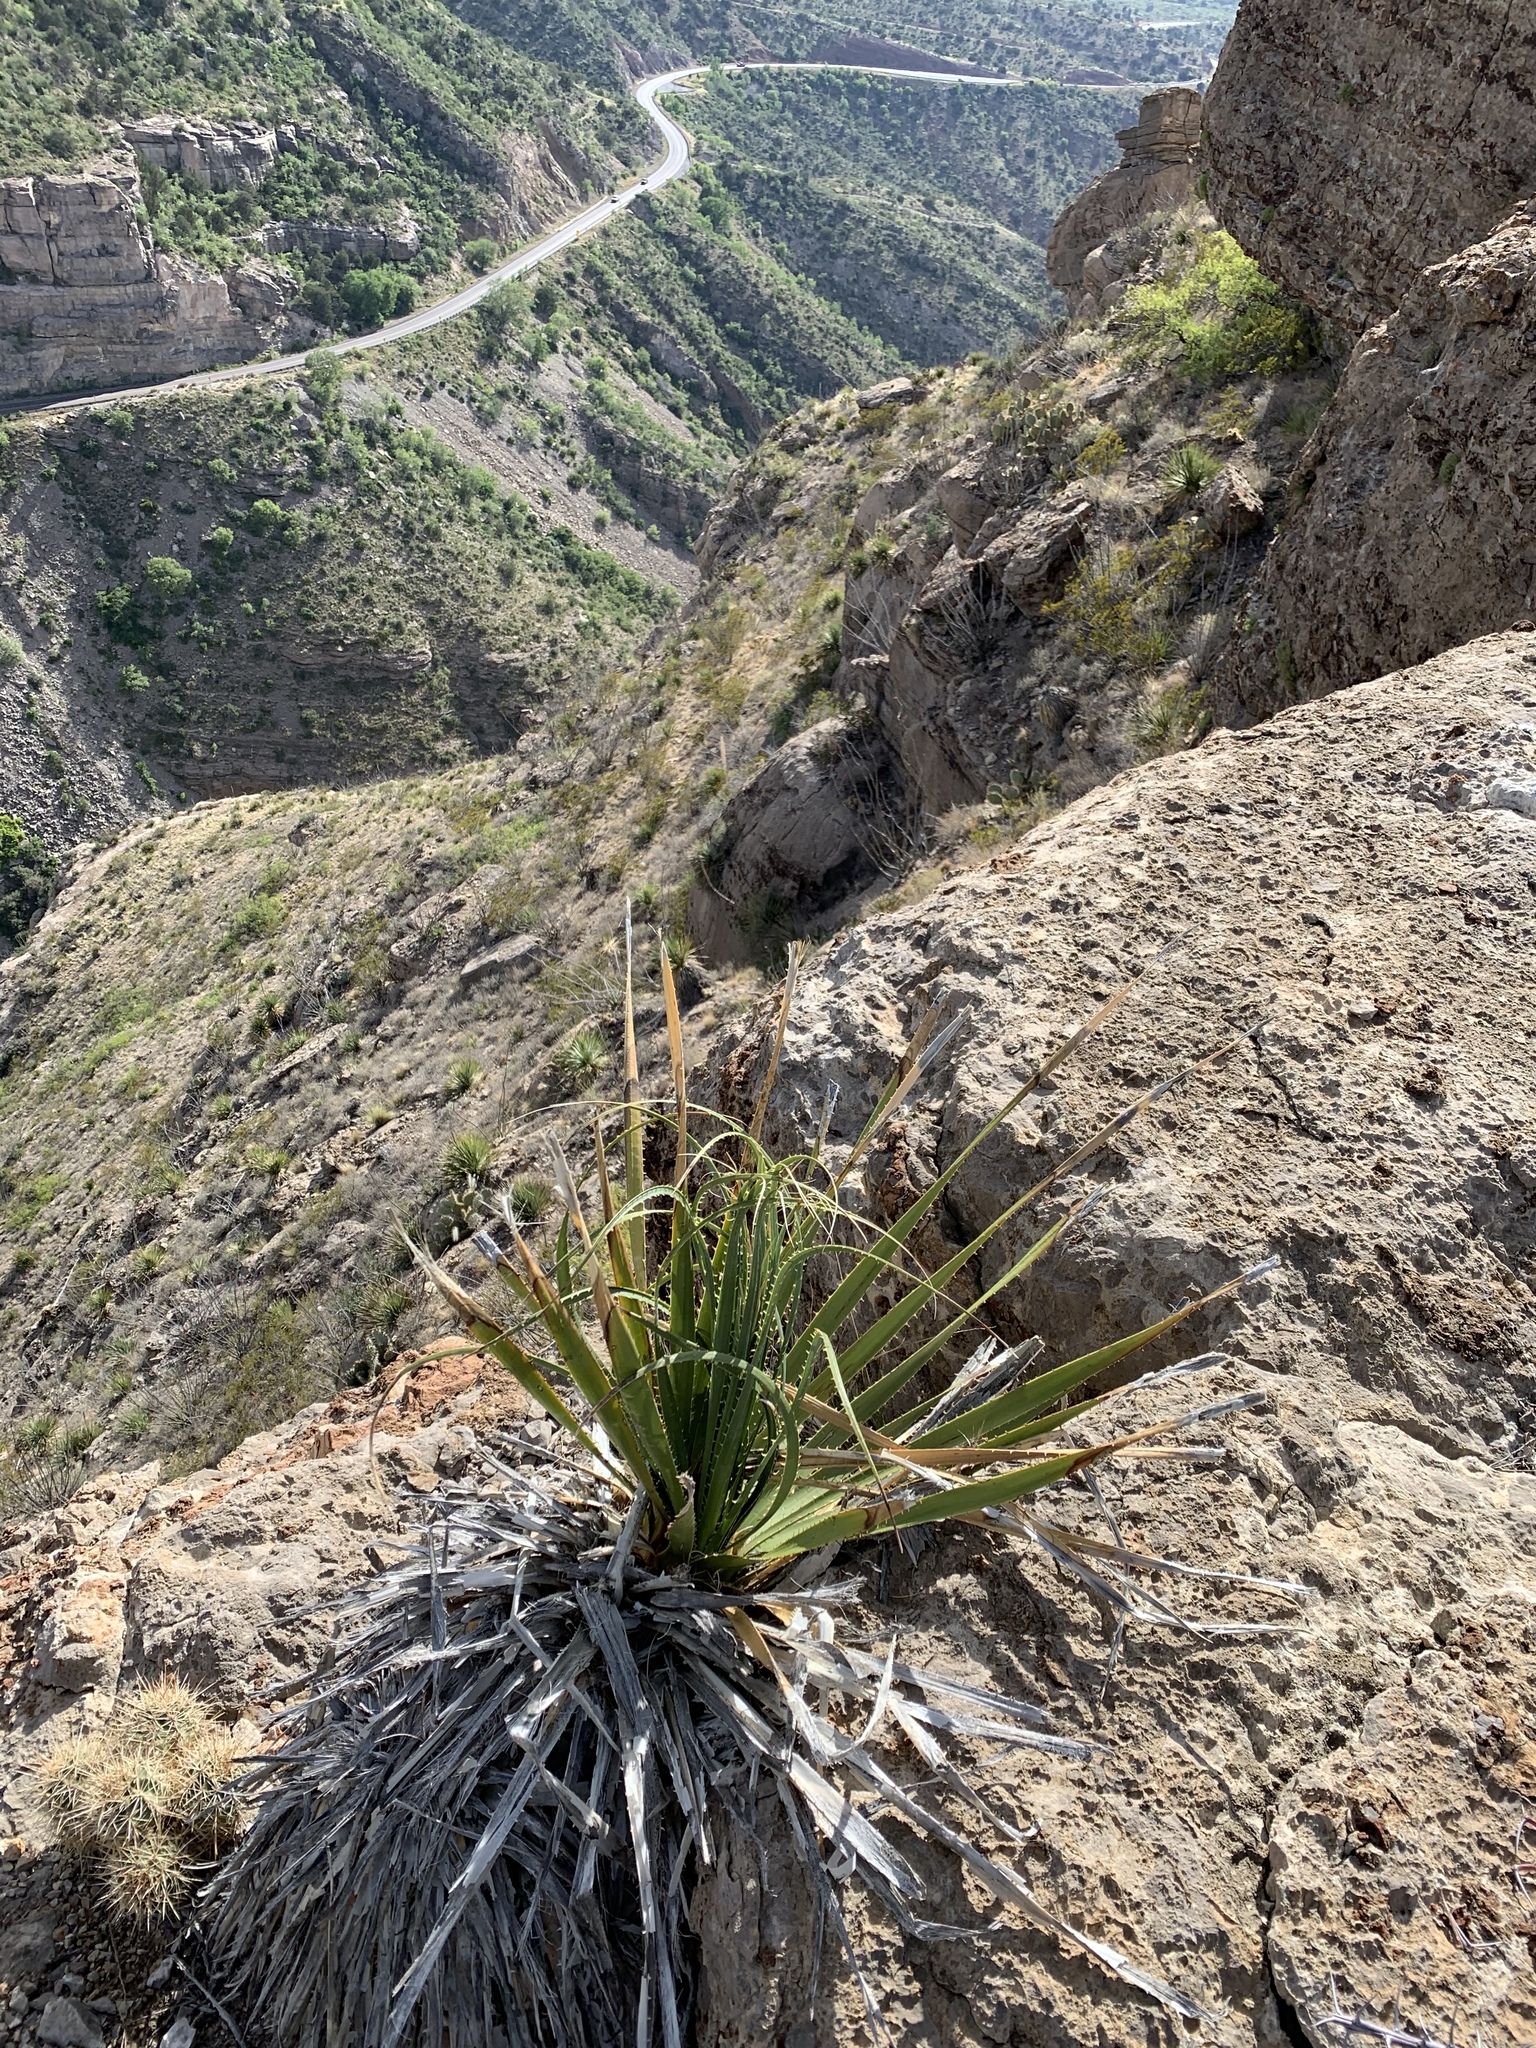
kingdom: Plantae
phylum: Tracheophyta
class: Liliopsida
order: Asparagales
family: Asparagaceae
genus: Dasylirion
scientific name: Dasylirion wheeleri
